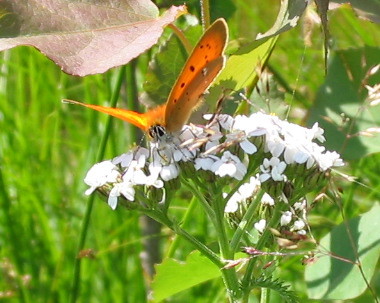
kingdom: Animalia
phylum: Arthropoda
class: Insecta
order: Lepidoptera
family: Lycaenidae
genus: Lycaena
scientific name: Lycaena virgaureae
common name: Scarce copper
